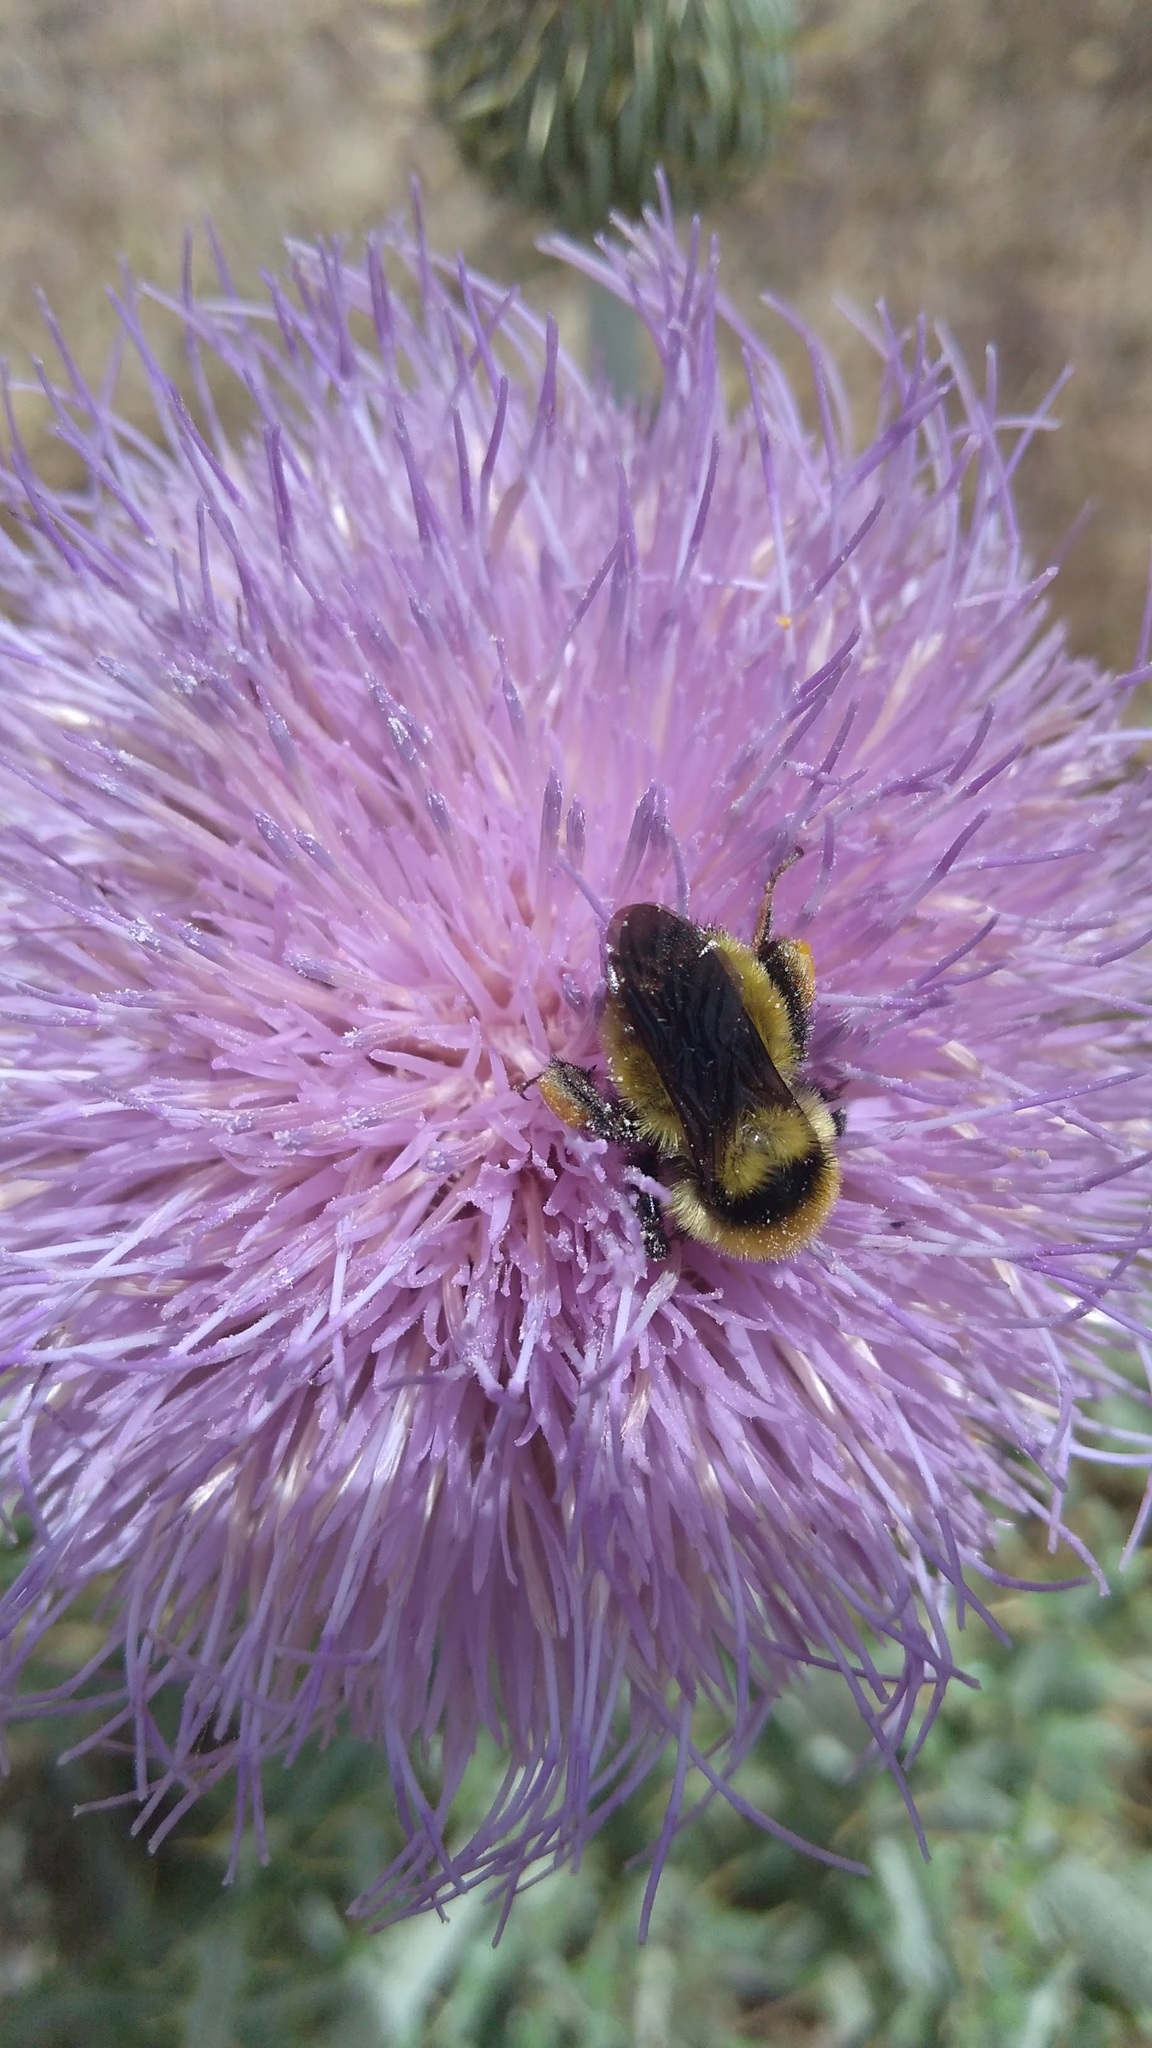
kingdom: Animalia
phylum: Arthropoda
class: Insecta
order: Hymenoptera
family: Apidae
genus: Bombus
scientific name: Bombus fervidus
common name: Yellow bumble bee
